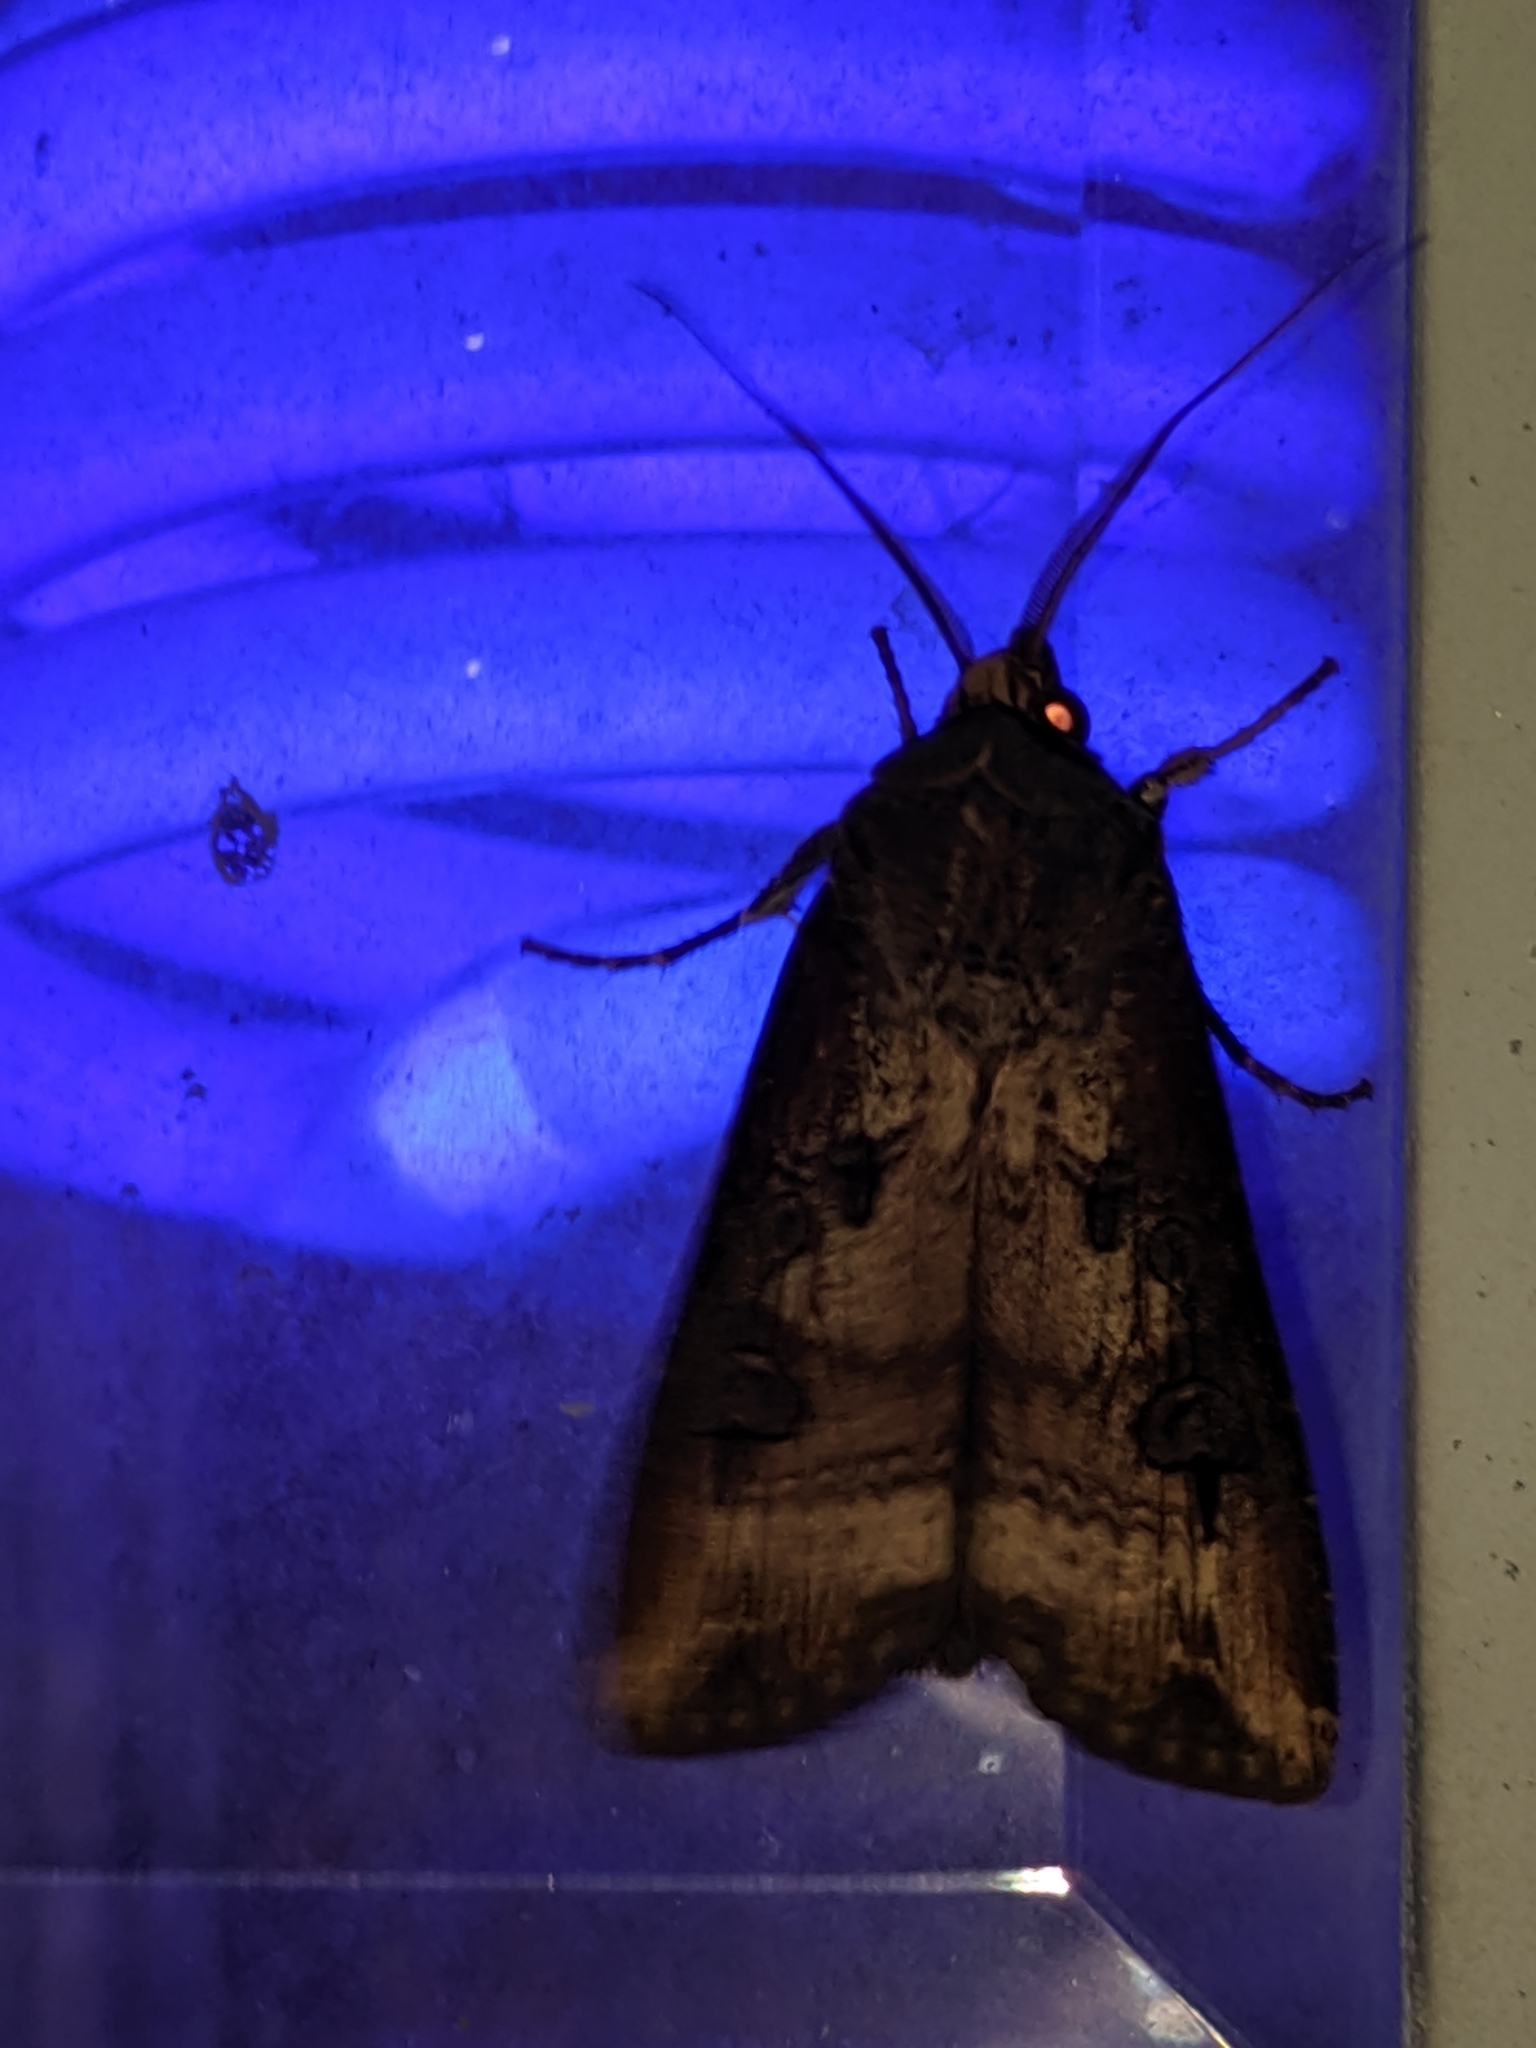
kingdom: Animalia
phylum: Arthropoda
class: Insecta
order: Lepidoptera
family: Noctuidae
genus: Agrotis
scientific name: Agrotis ipsilon
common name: Dark sword-grass
